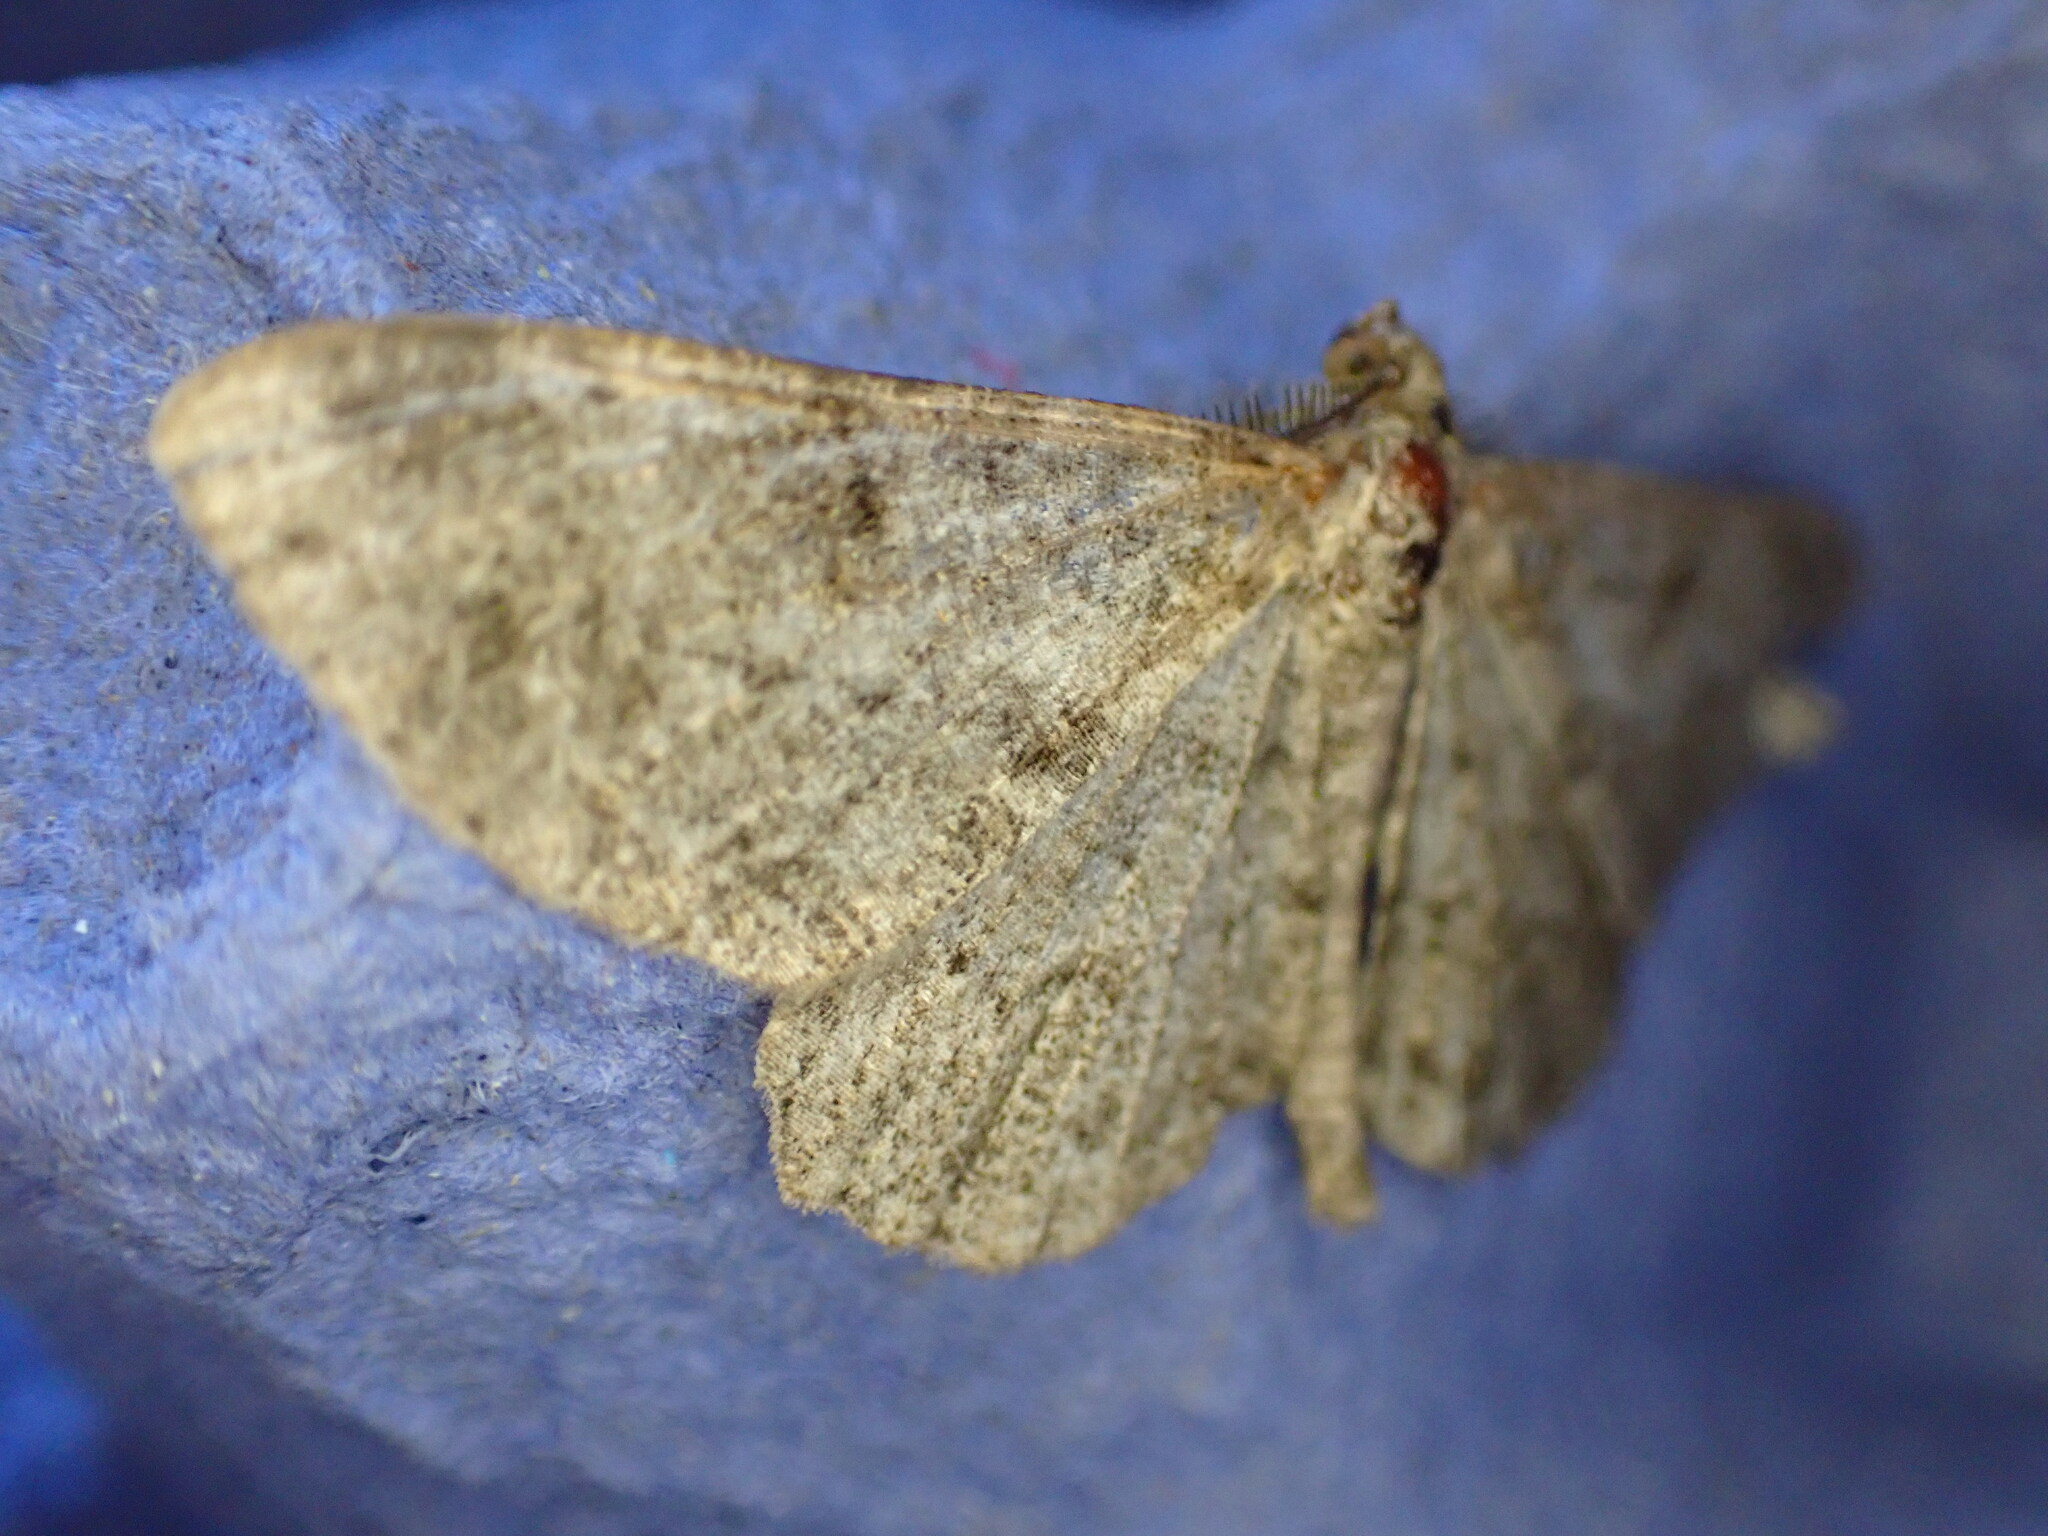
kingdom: Animalia
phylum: Arthropoda
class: Insecta
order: Lepidoptera
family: Geometridae
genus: Peribatodes
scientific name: Peribatodes rhomboidaria
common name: Willow beauty
